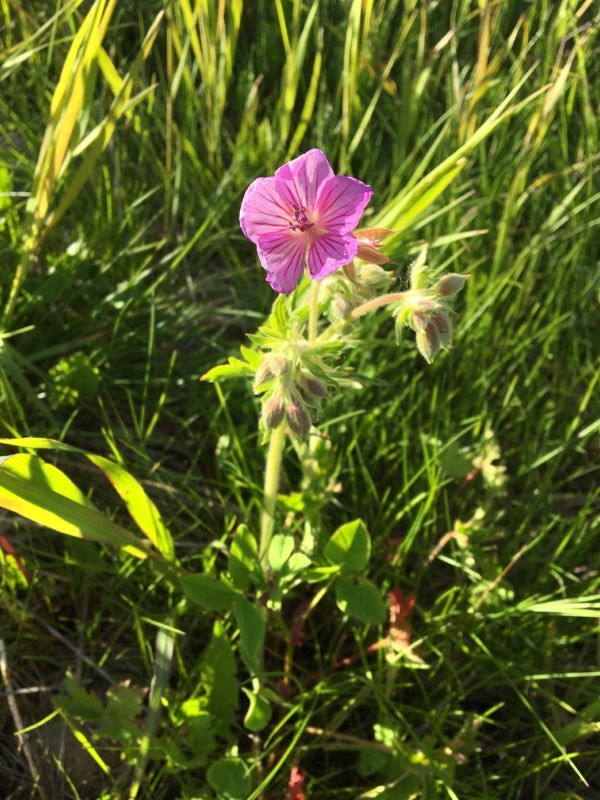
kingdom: Plantae
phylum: Tracheophyta
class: Magnoliopsida
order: Geraniales
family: Geraniaceae
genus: Geranium
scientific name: Geranium viscosissimum
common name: Purple geranium
